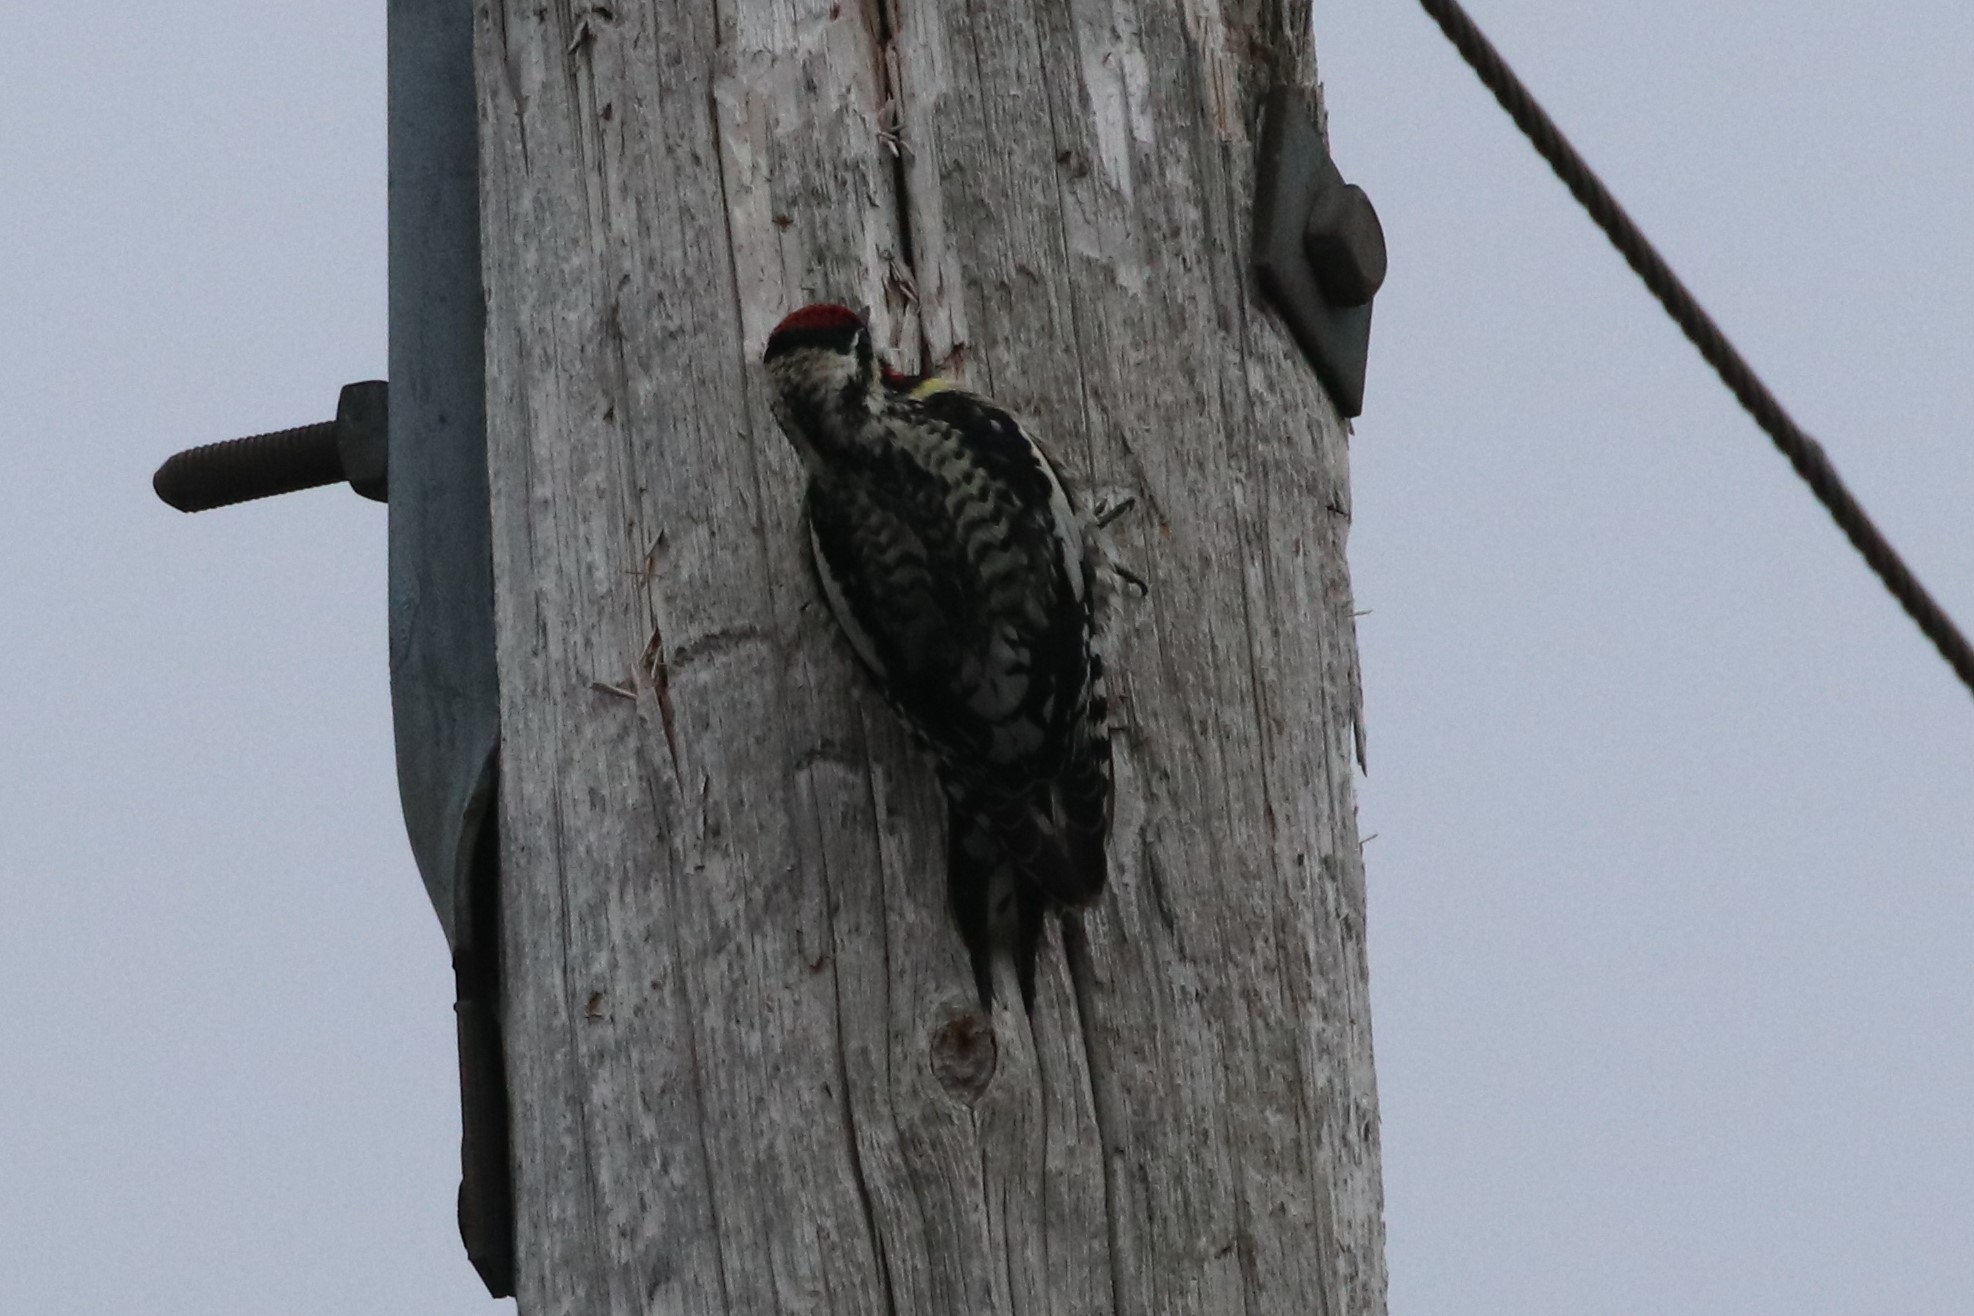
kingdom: Animalia
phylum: Chordata
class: Aves
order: Piciformes
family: Picidae
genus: Sphyrapicus
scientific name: Sphyrapicus varius
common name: Yellow-bellied sapsucker
